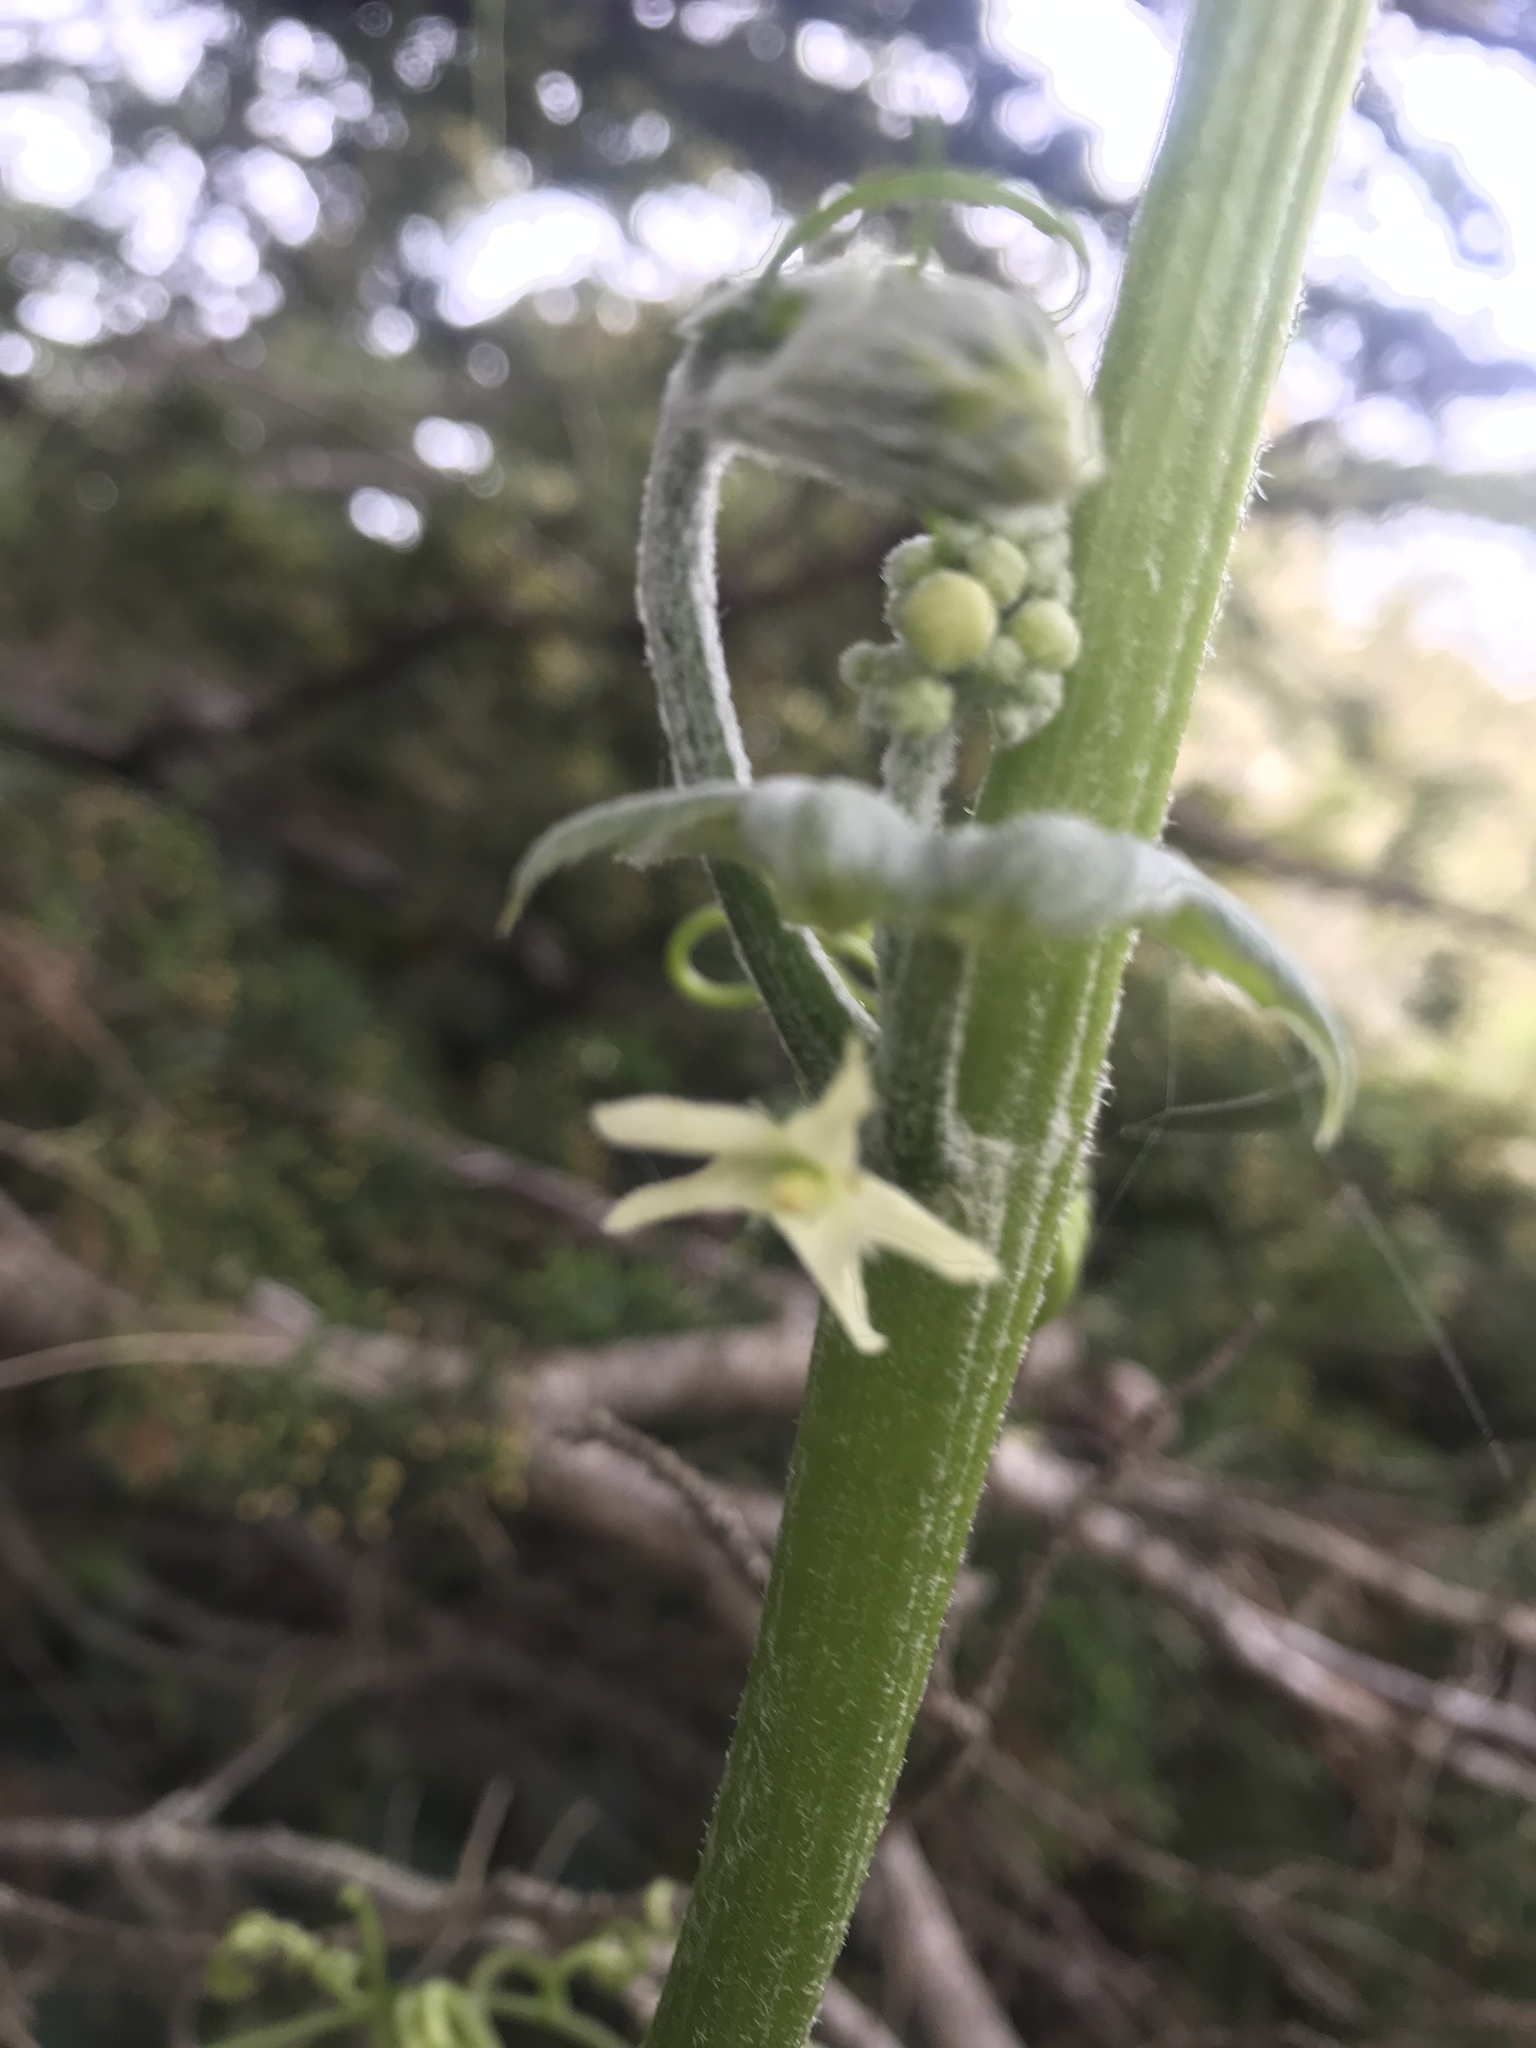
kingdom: Plantae
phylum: Tracheophyta
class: Magnoliopsida
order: Cucurbitales
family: Cucurbitaceae
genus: Marah
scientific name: Marah fabacea
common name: California manroot
